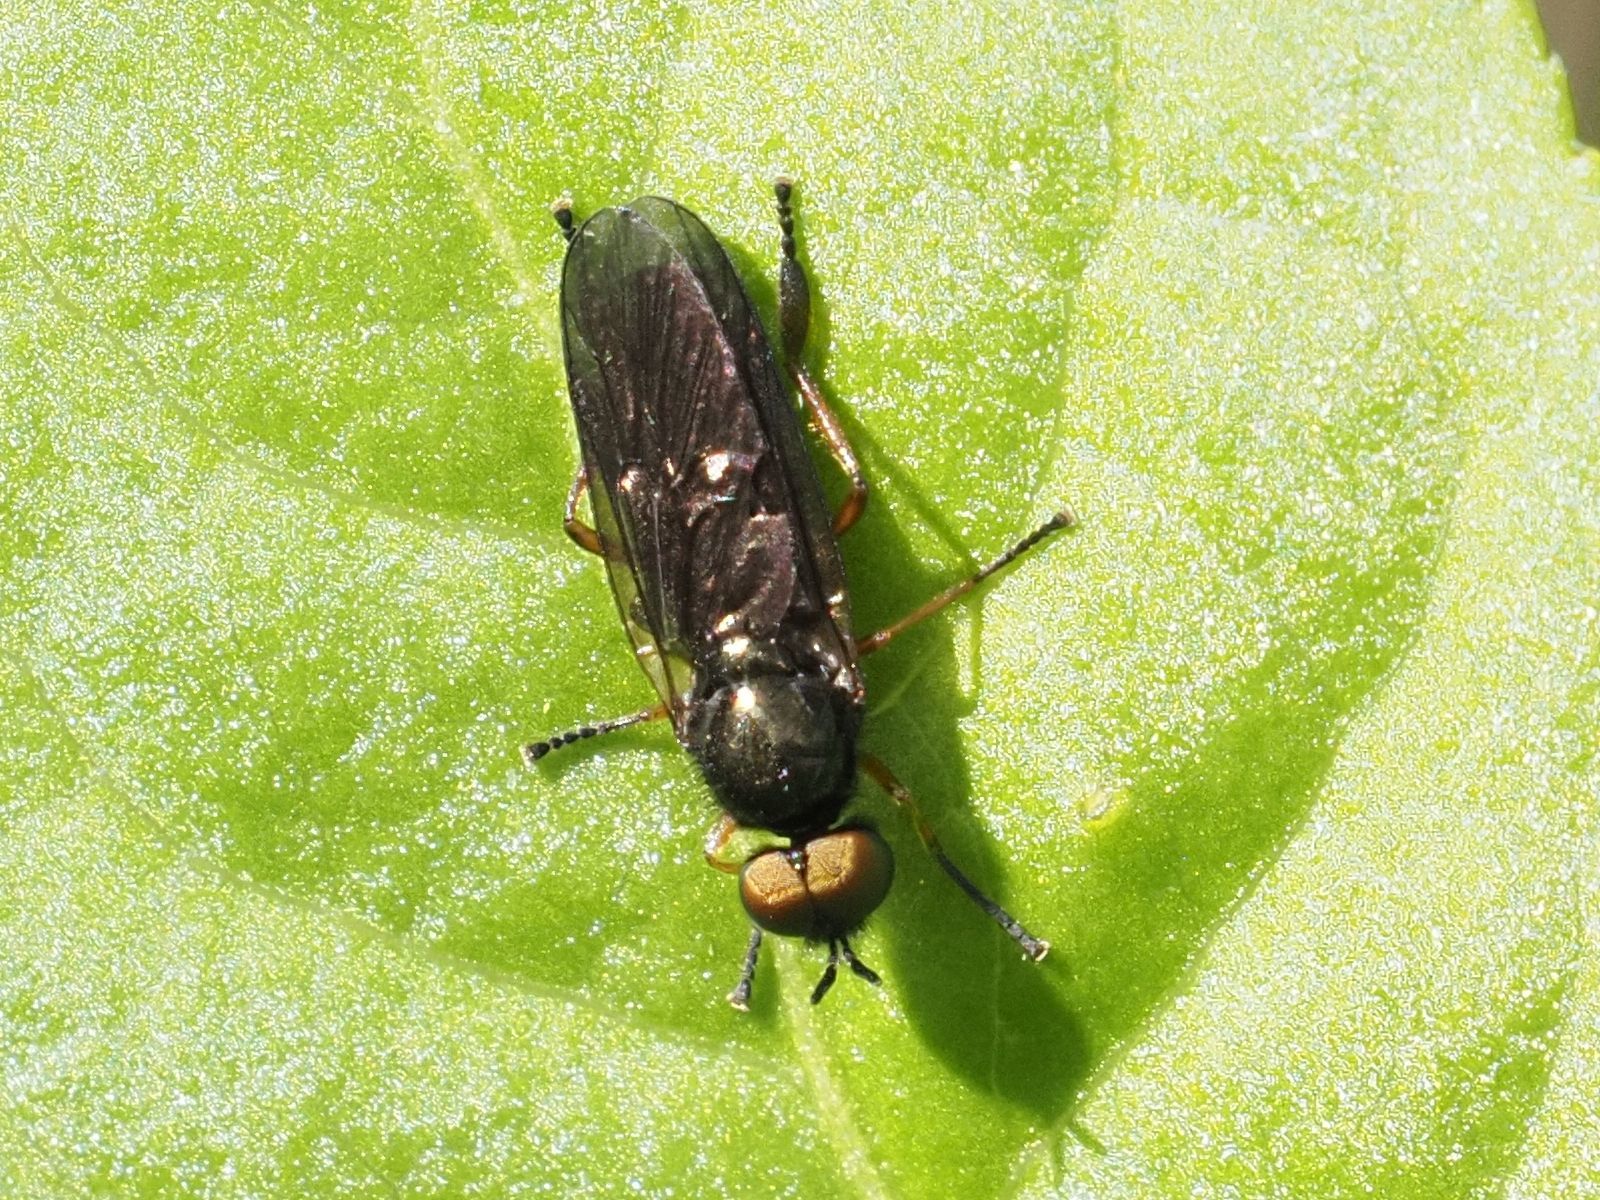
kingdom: Animalia
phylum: Arthropoda
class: Insecta
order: Diptera
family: Stratiomyidae
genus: Beris
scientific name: Beris chalybata
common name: Murky-legged black legionnaire
